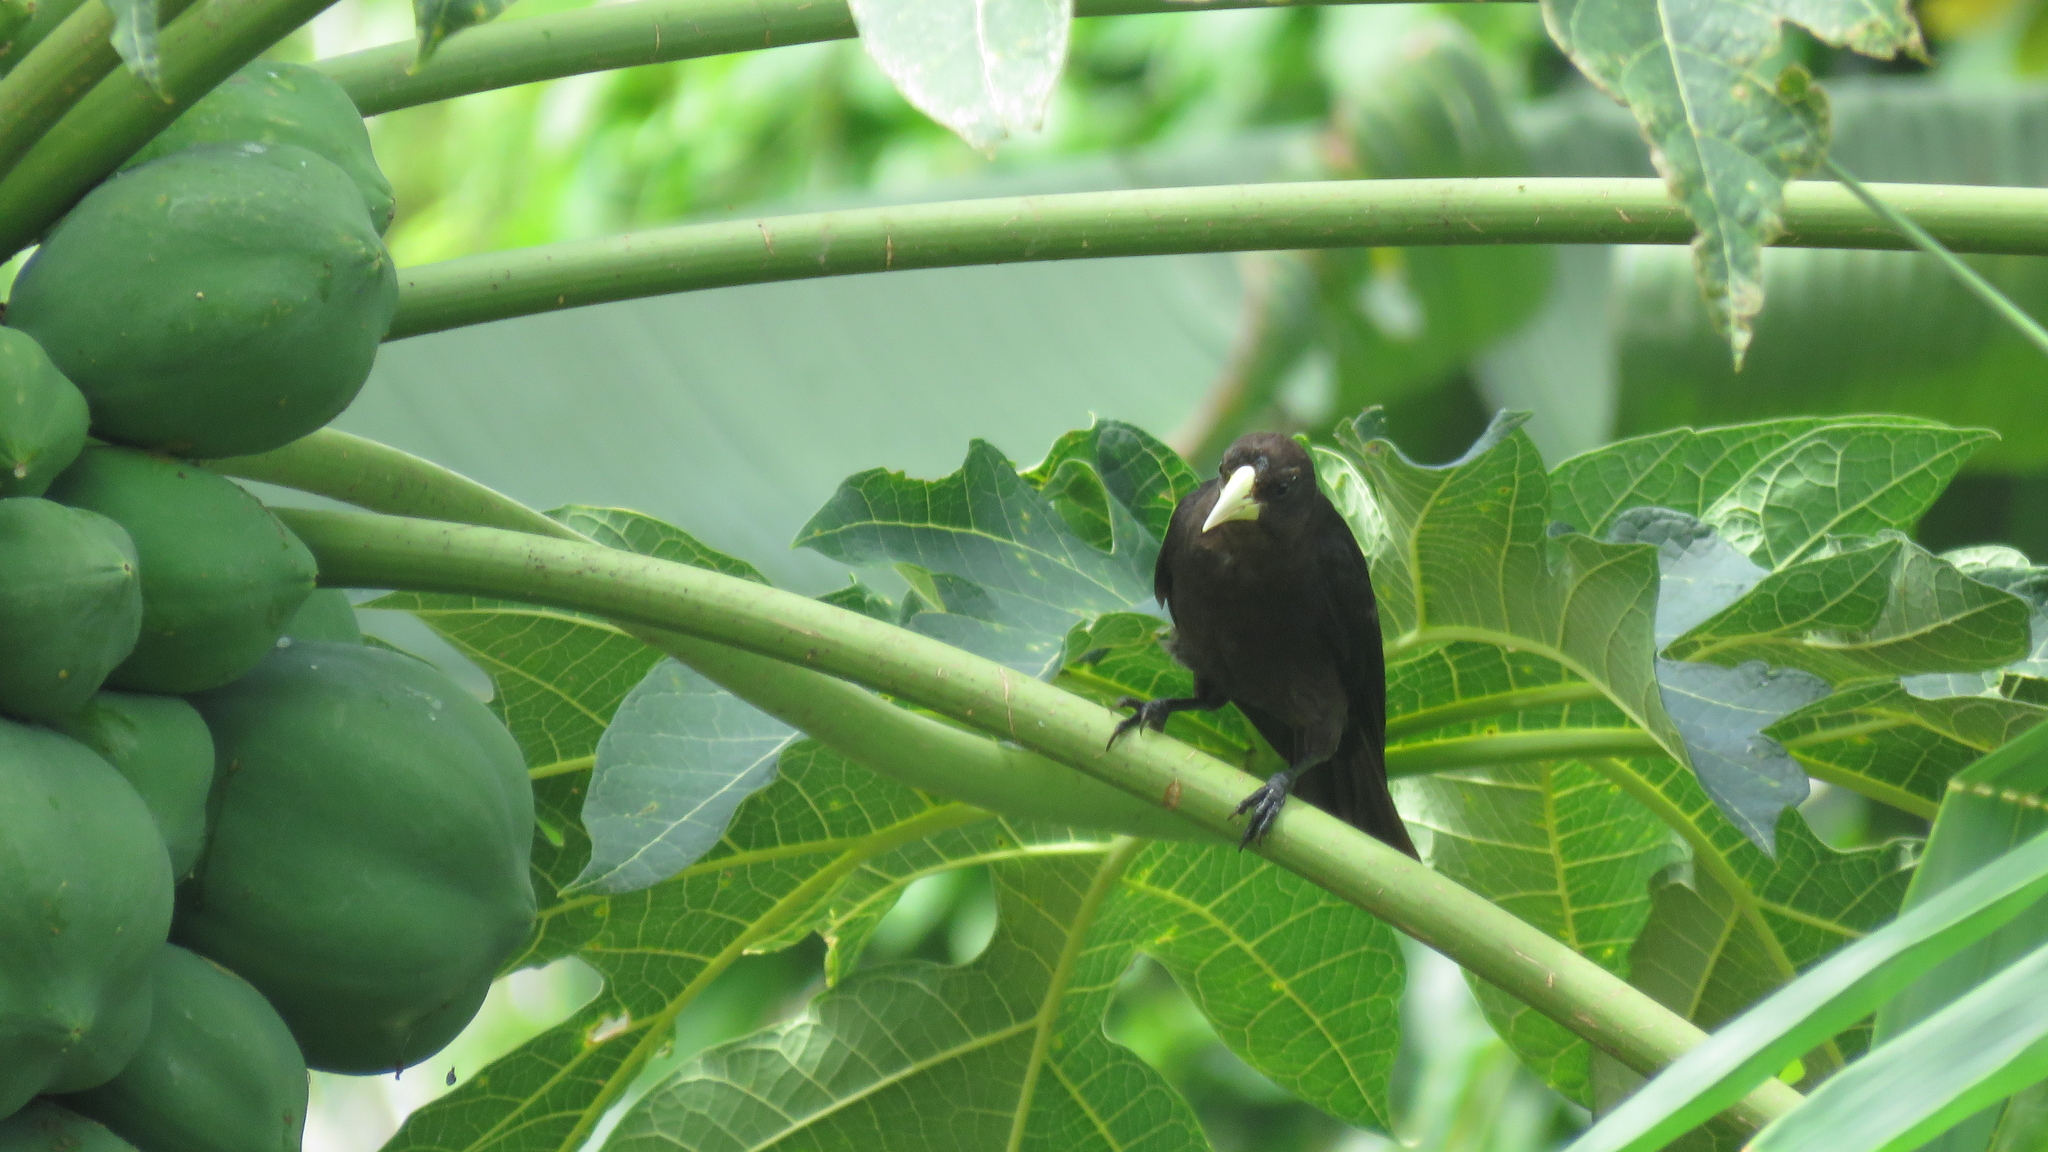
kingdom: Animalia
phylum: Chordata
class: Aves
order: Passeriformes
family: Icteridae
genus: Cacicus
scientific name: Cacicus haemorrhous
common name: Red-rumped cacique
